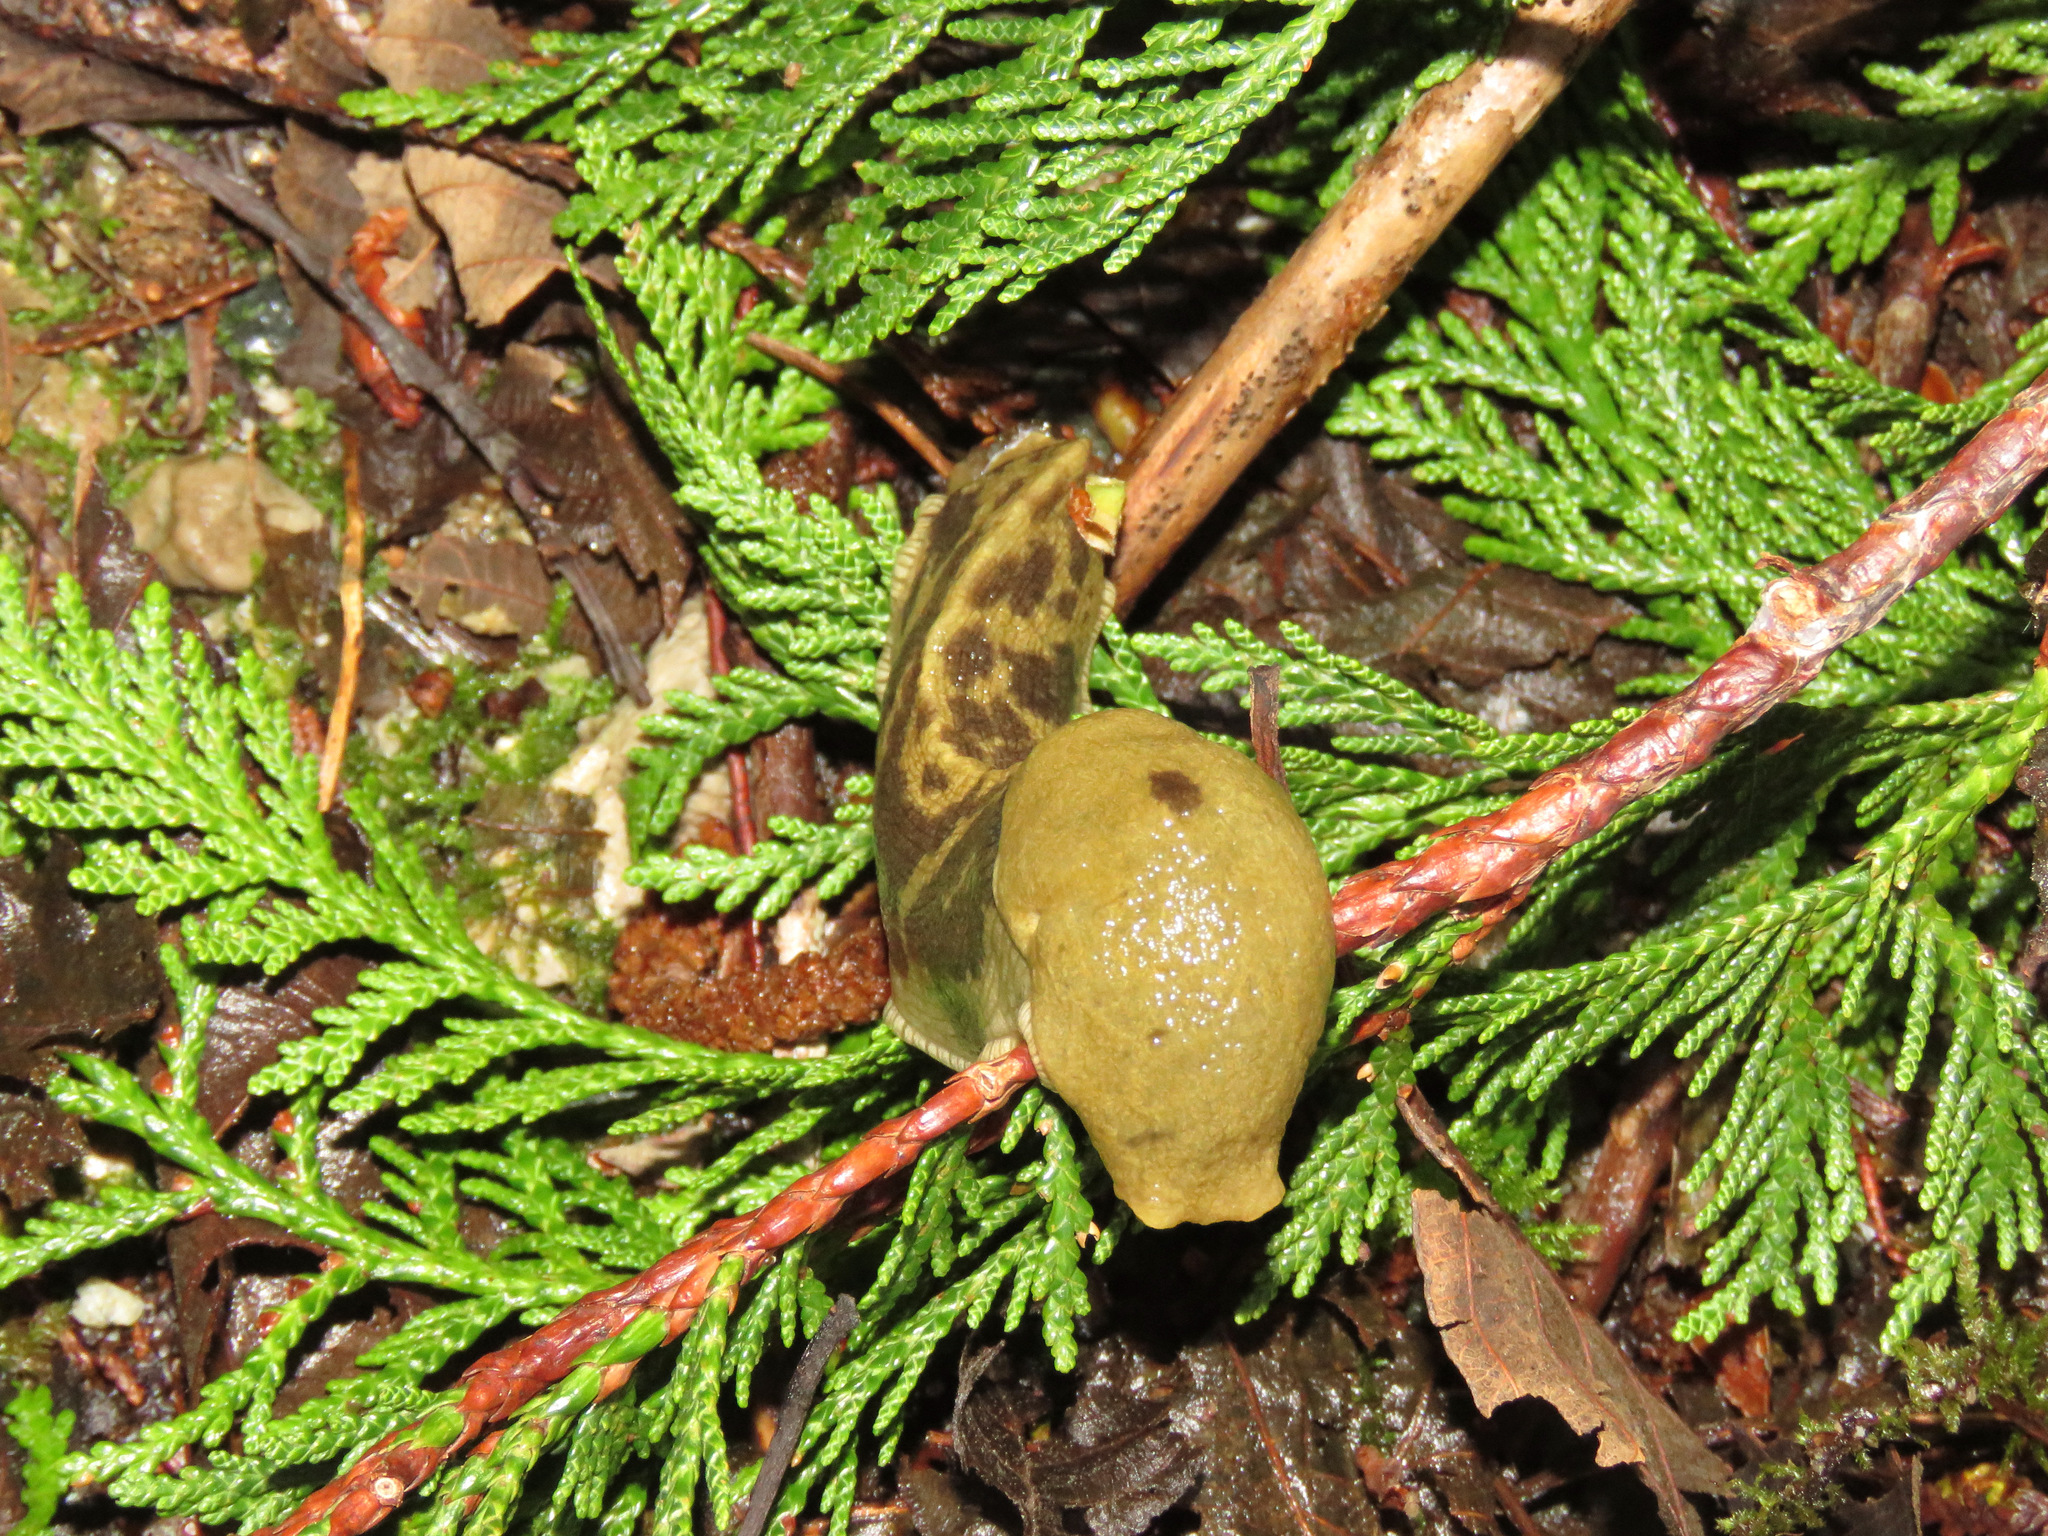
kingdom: Animalia
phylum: Mollusca
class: Gastropoda
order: Stylommatophora
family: Ariolimacidae
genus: Ariolimax
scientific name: Ariolimax columbianus
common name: Pacific banana slug
